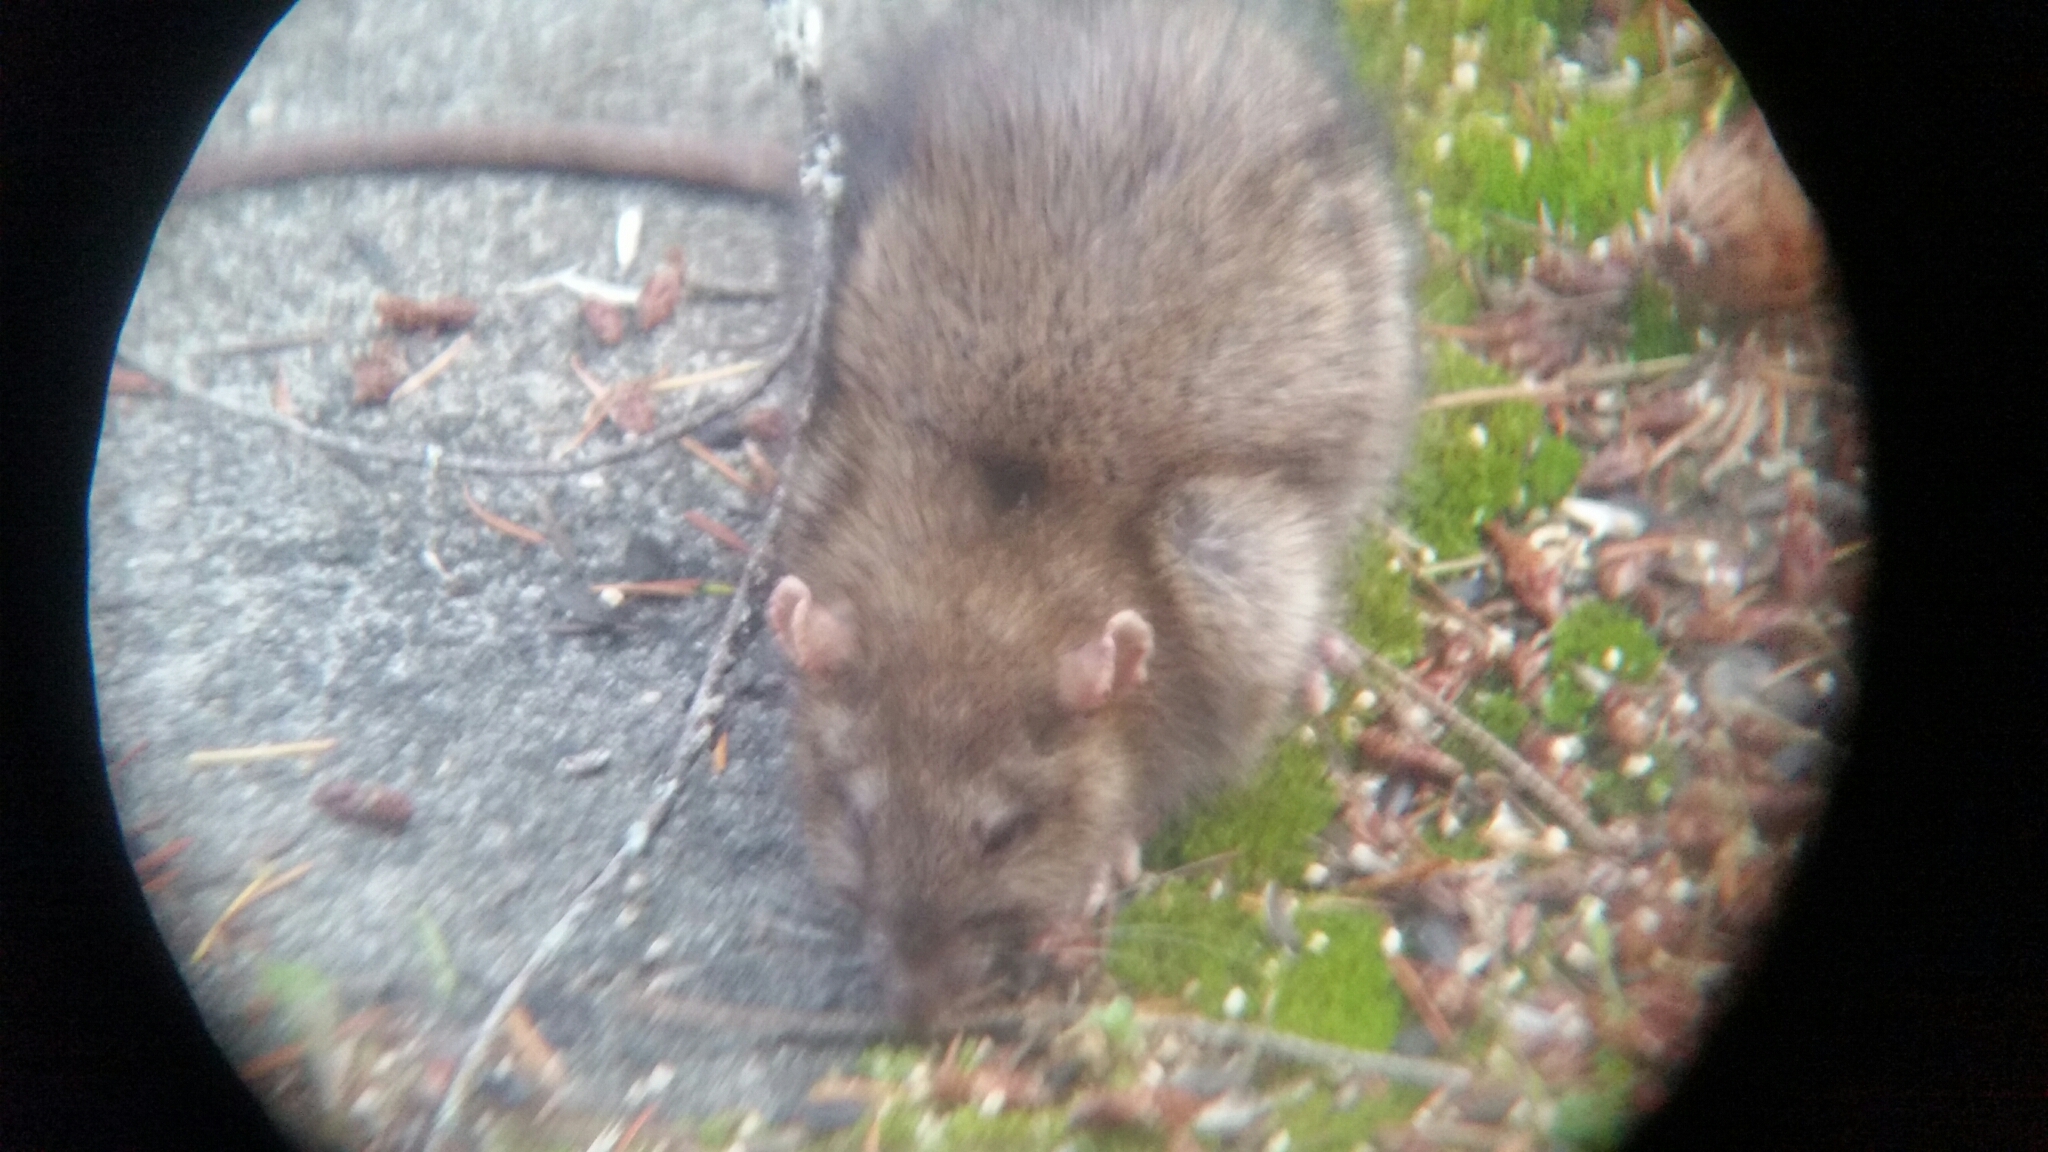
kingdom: Animalia
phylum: Chordata
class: Mammalia
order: Rodentia
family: Muridae
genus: Rattus
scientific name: Rattus norvegicus
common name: Brown rat
